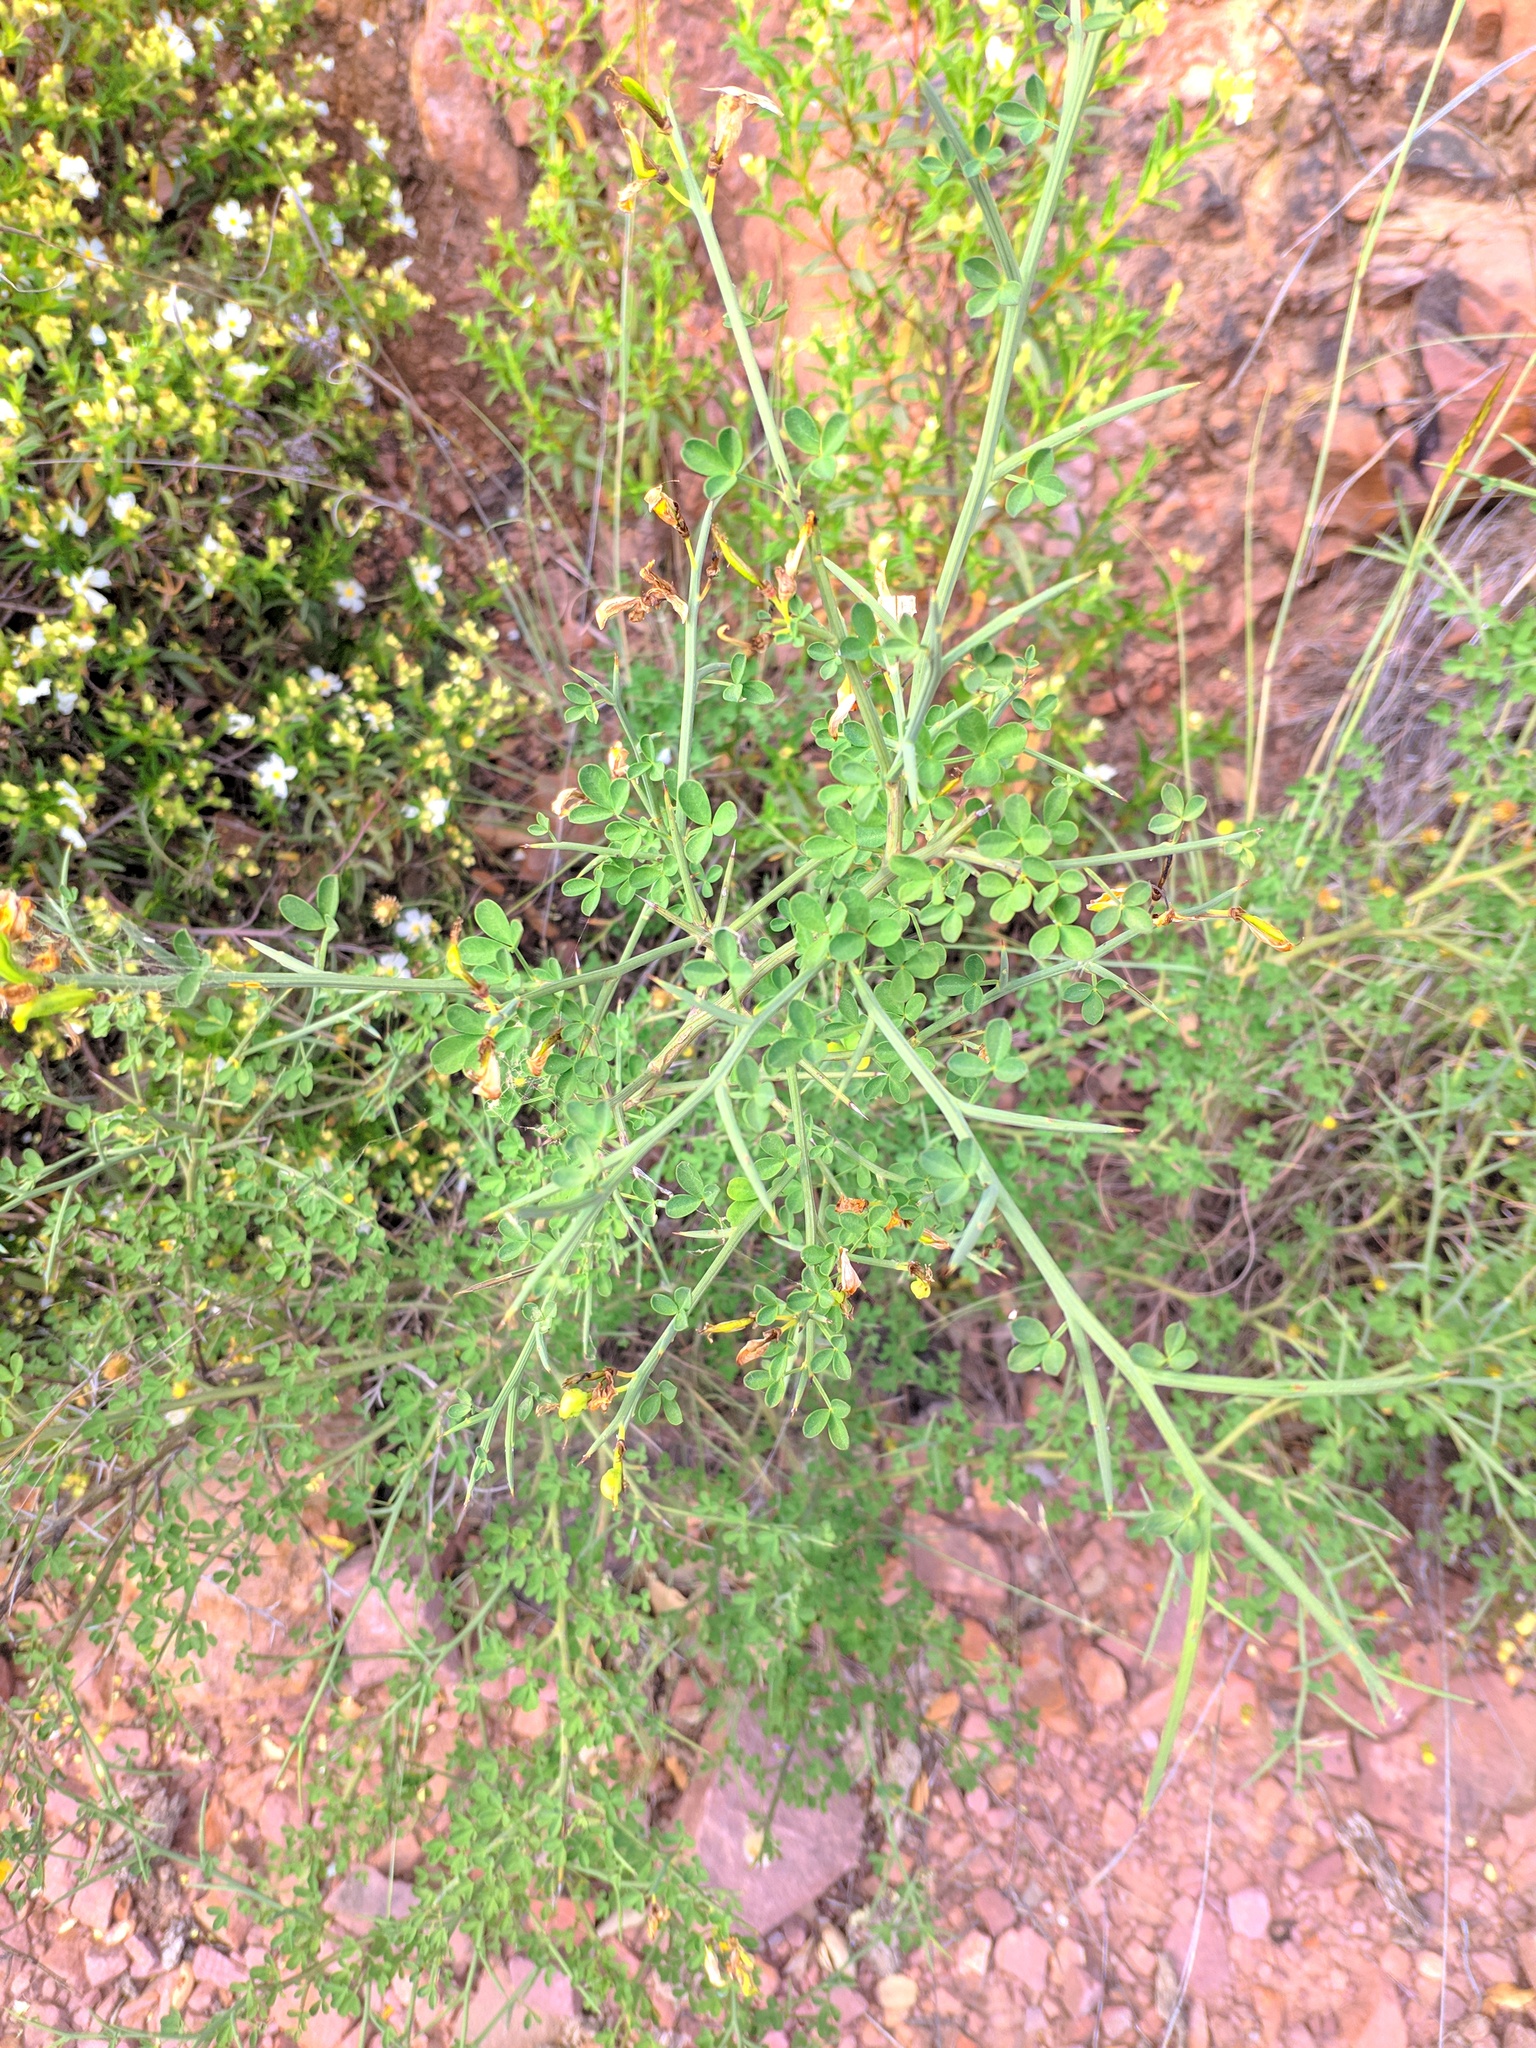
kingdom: Plantae
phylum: Tracheophyta
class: Magnoliopsida
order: Fabales
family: Fabaceae
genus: Calicotome
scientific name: Calicotome spinosa
